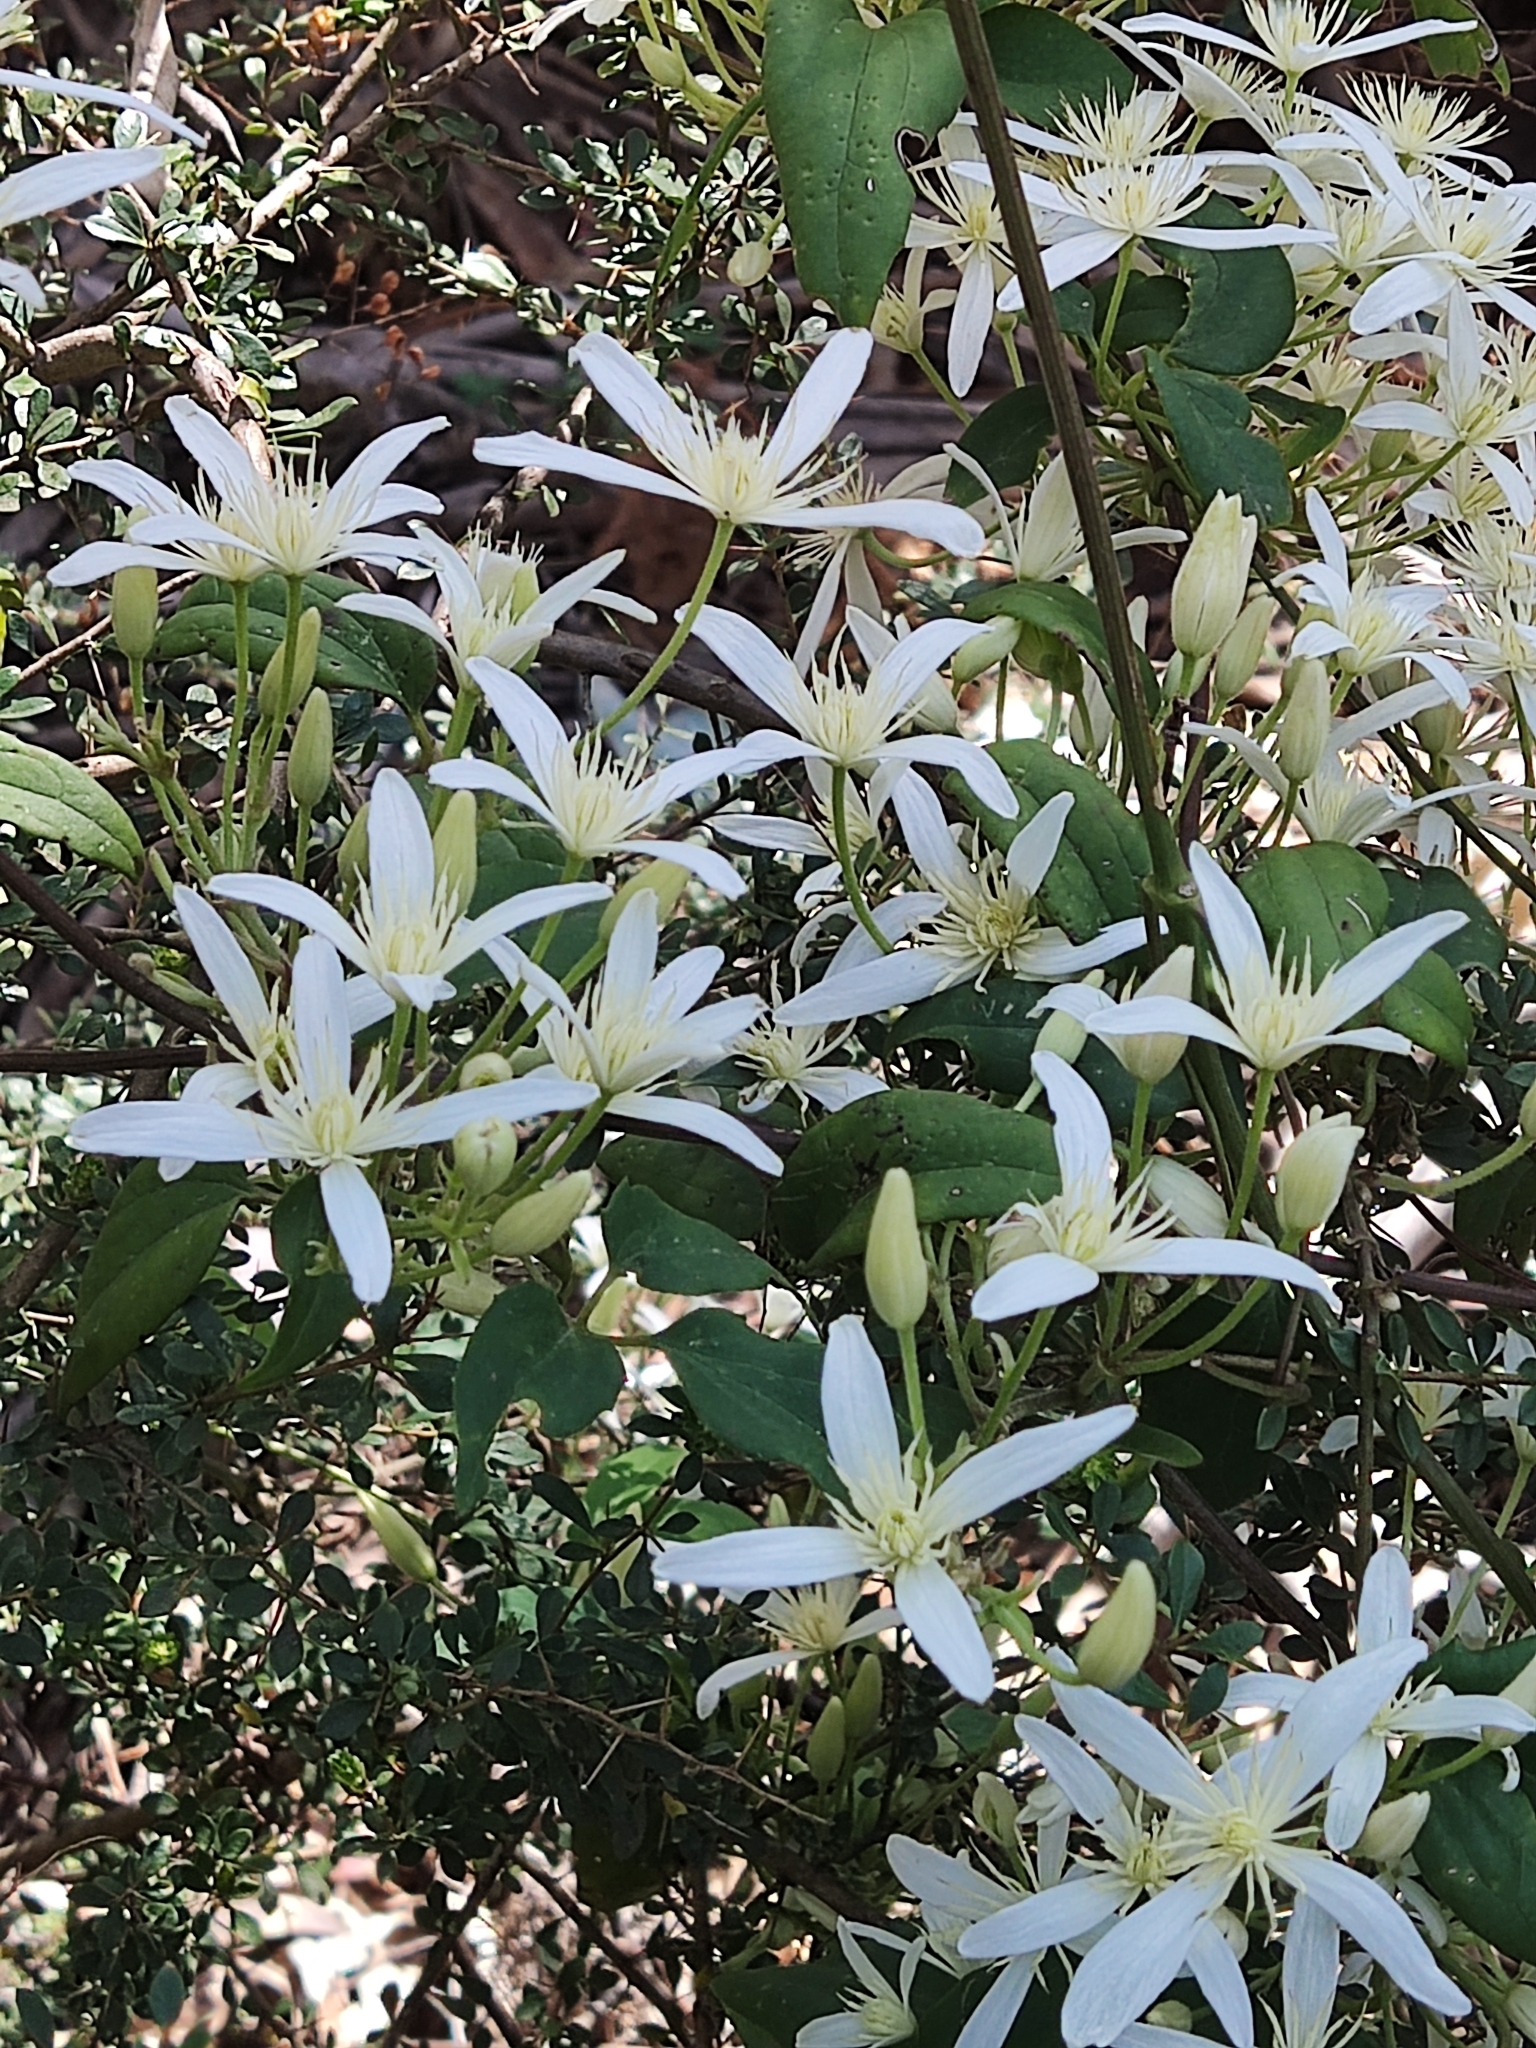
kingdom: Plantae
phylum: Tracheophyta
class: Magnoliopsida
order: Ranunculales
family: Ranunculaceae
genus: Clematis
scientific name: Clematis aristata
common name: Mountain clematis
